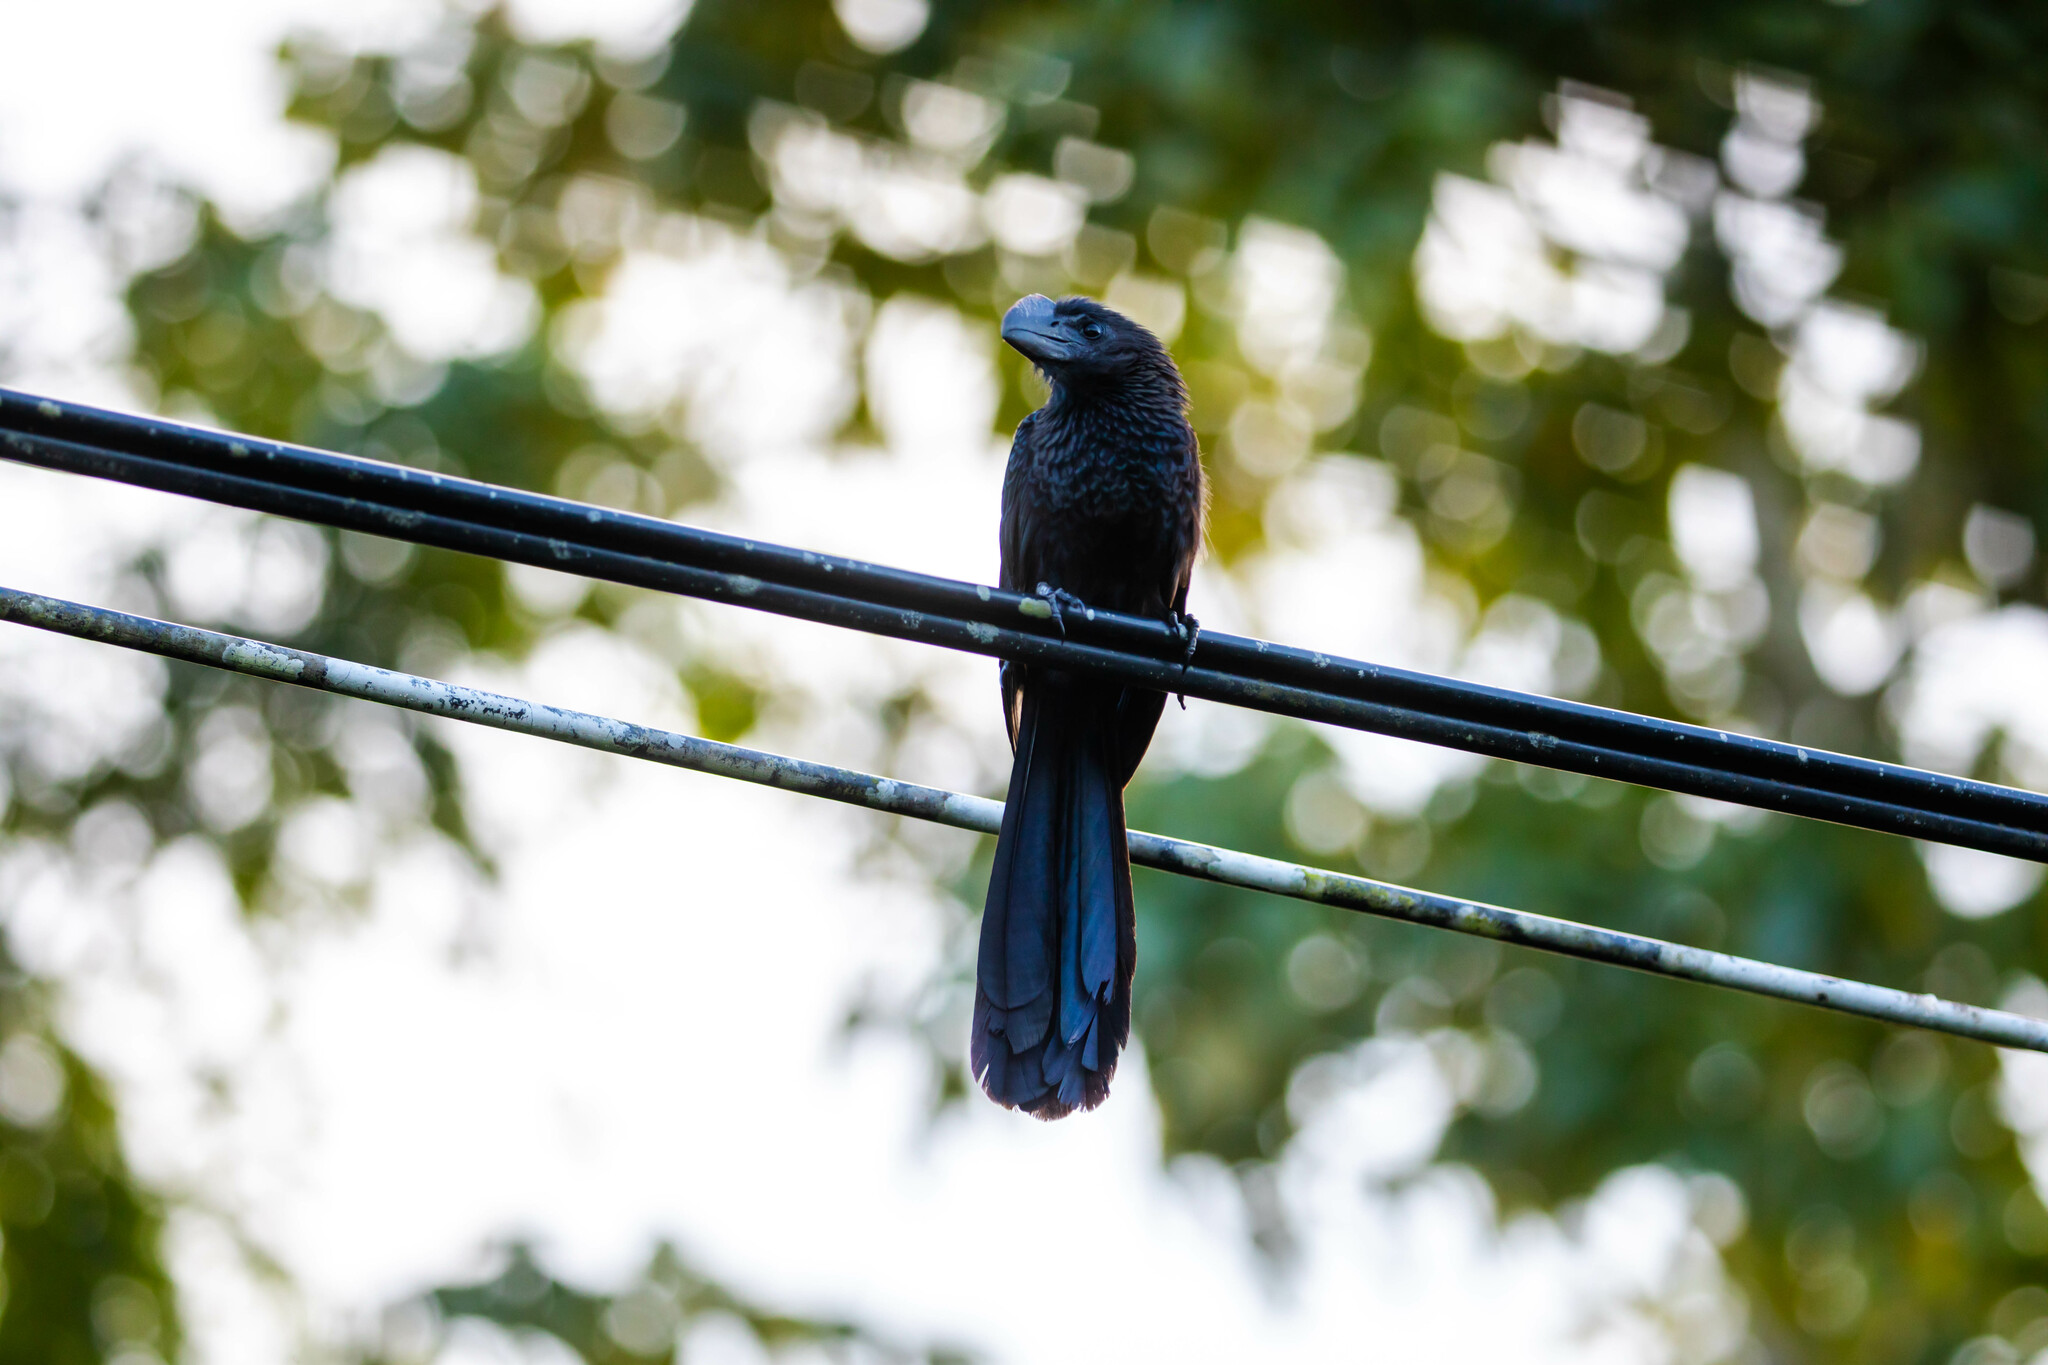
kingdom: Animalia
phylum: Chordata
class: Aves
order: Cuculiformes
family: Cuculidae
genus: Crotophaga
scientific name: Crotophaga ani
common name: Smooth-billed ani
